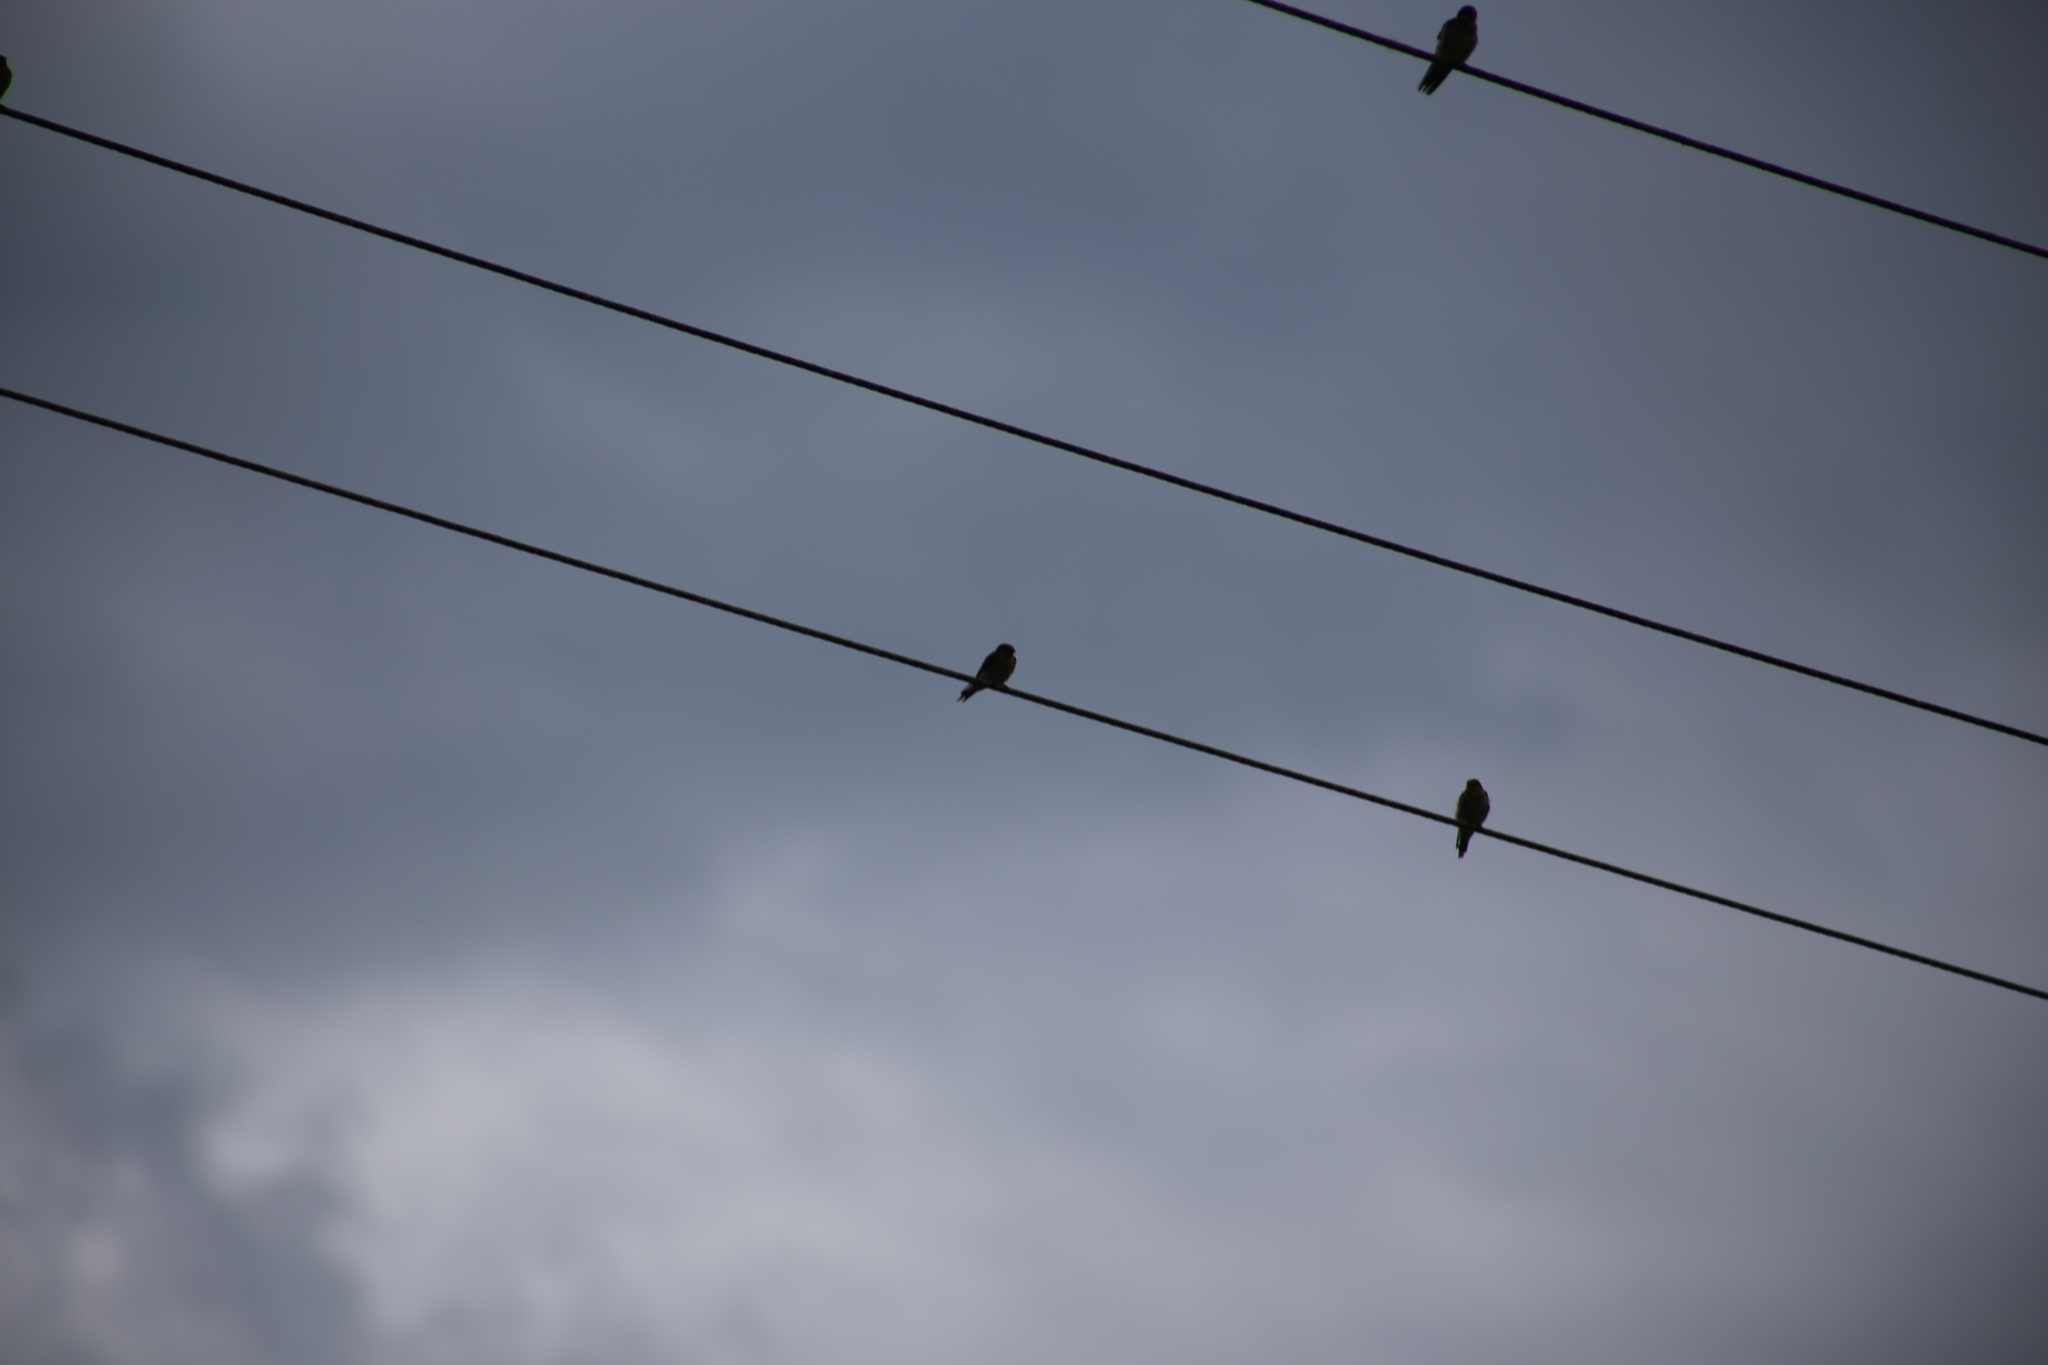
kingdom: Animalia
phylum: Chordata
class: Aves
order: Passeriformes
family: Hirundinidae
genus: Hirundo
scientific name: Hirundo neoxena
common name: Welcome swallow
